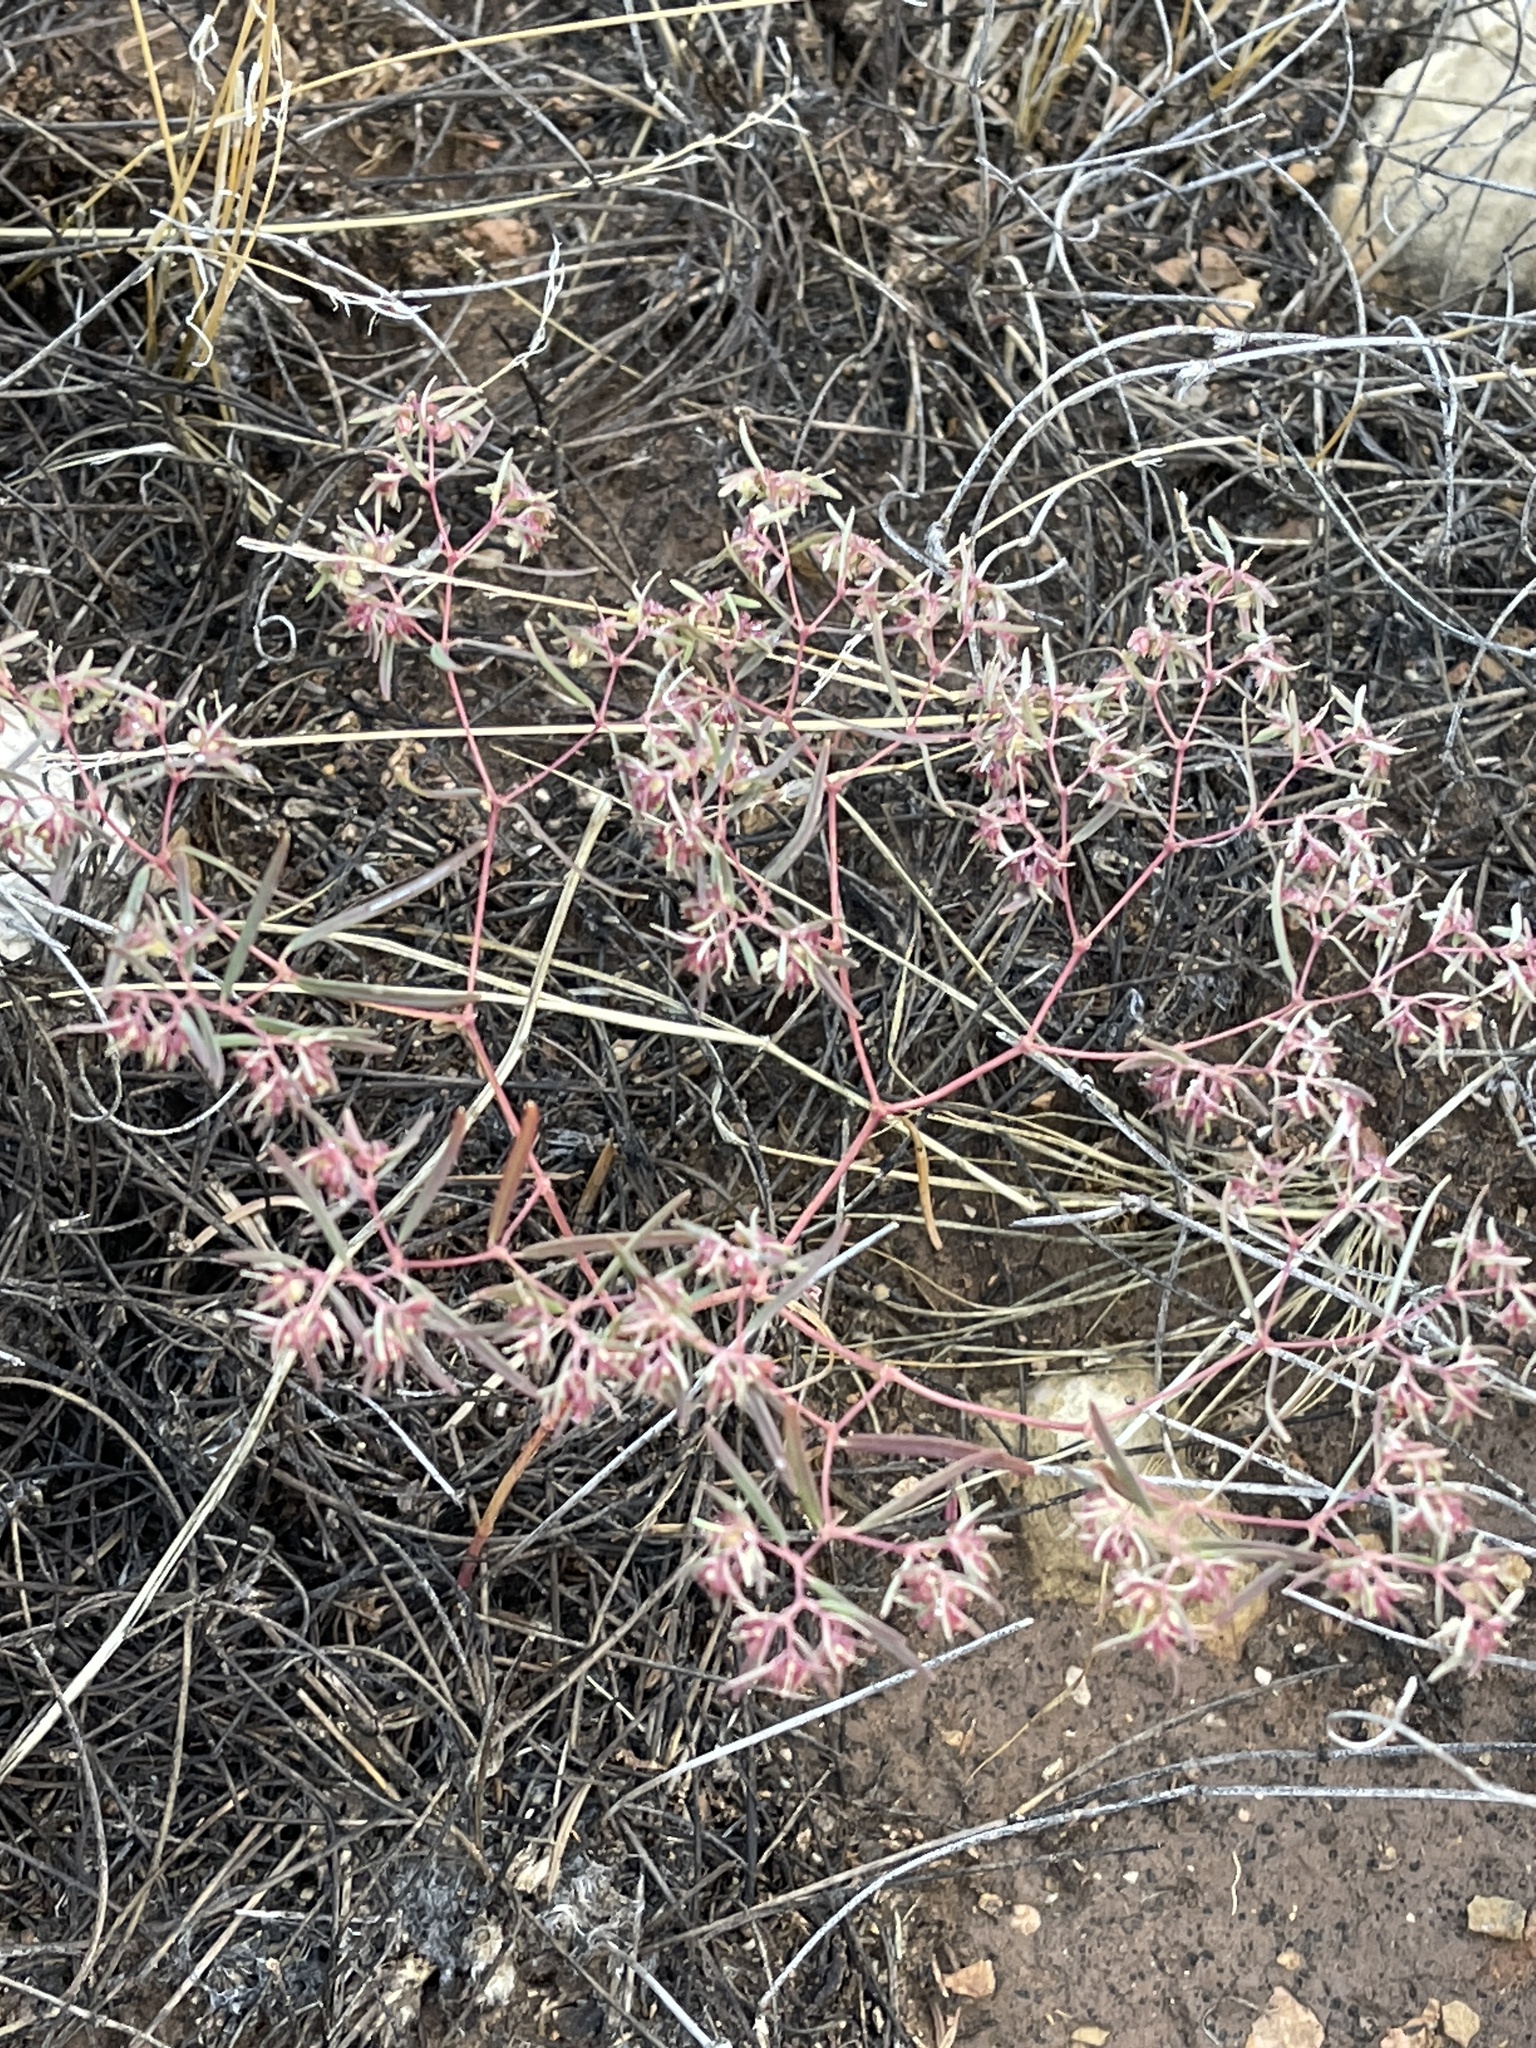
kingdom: Plantae
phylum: Tracheophyta
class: Magnoliopsida
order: Malpighiales
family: Euphorbiaceae
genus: Euphorbia
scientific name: Euphorbia revoluta
